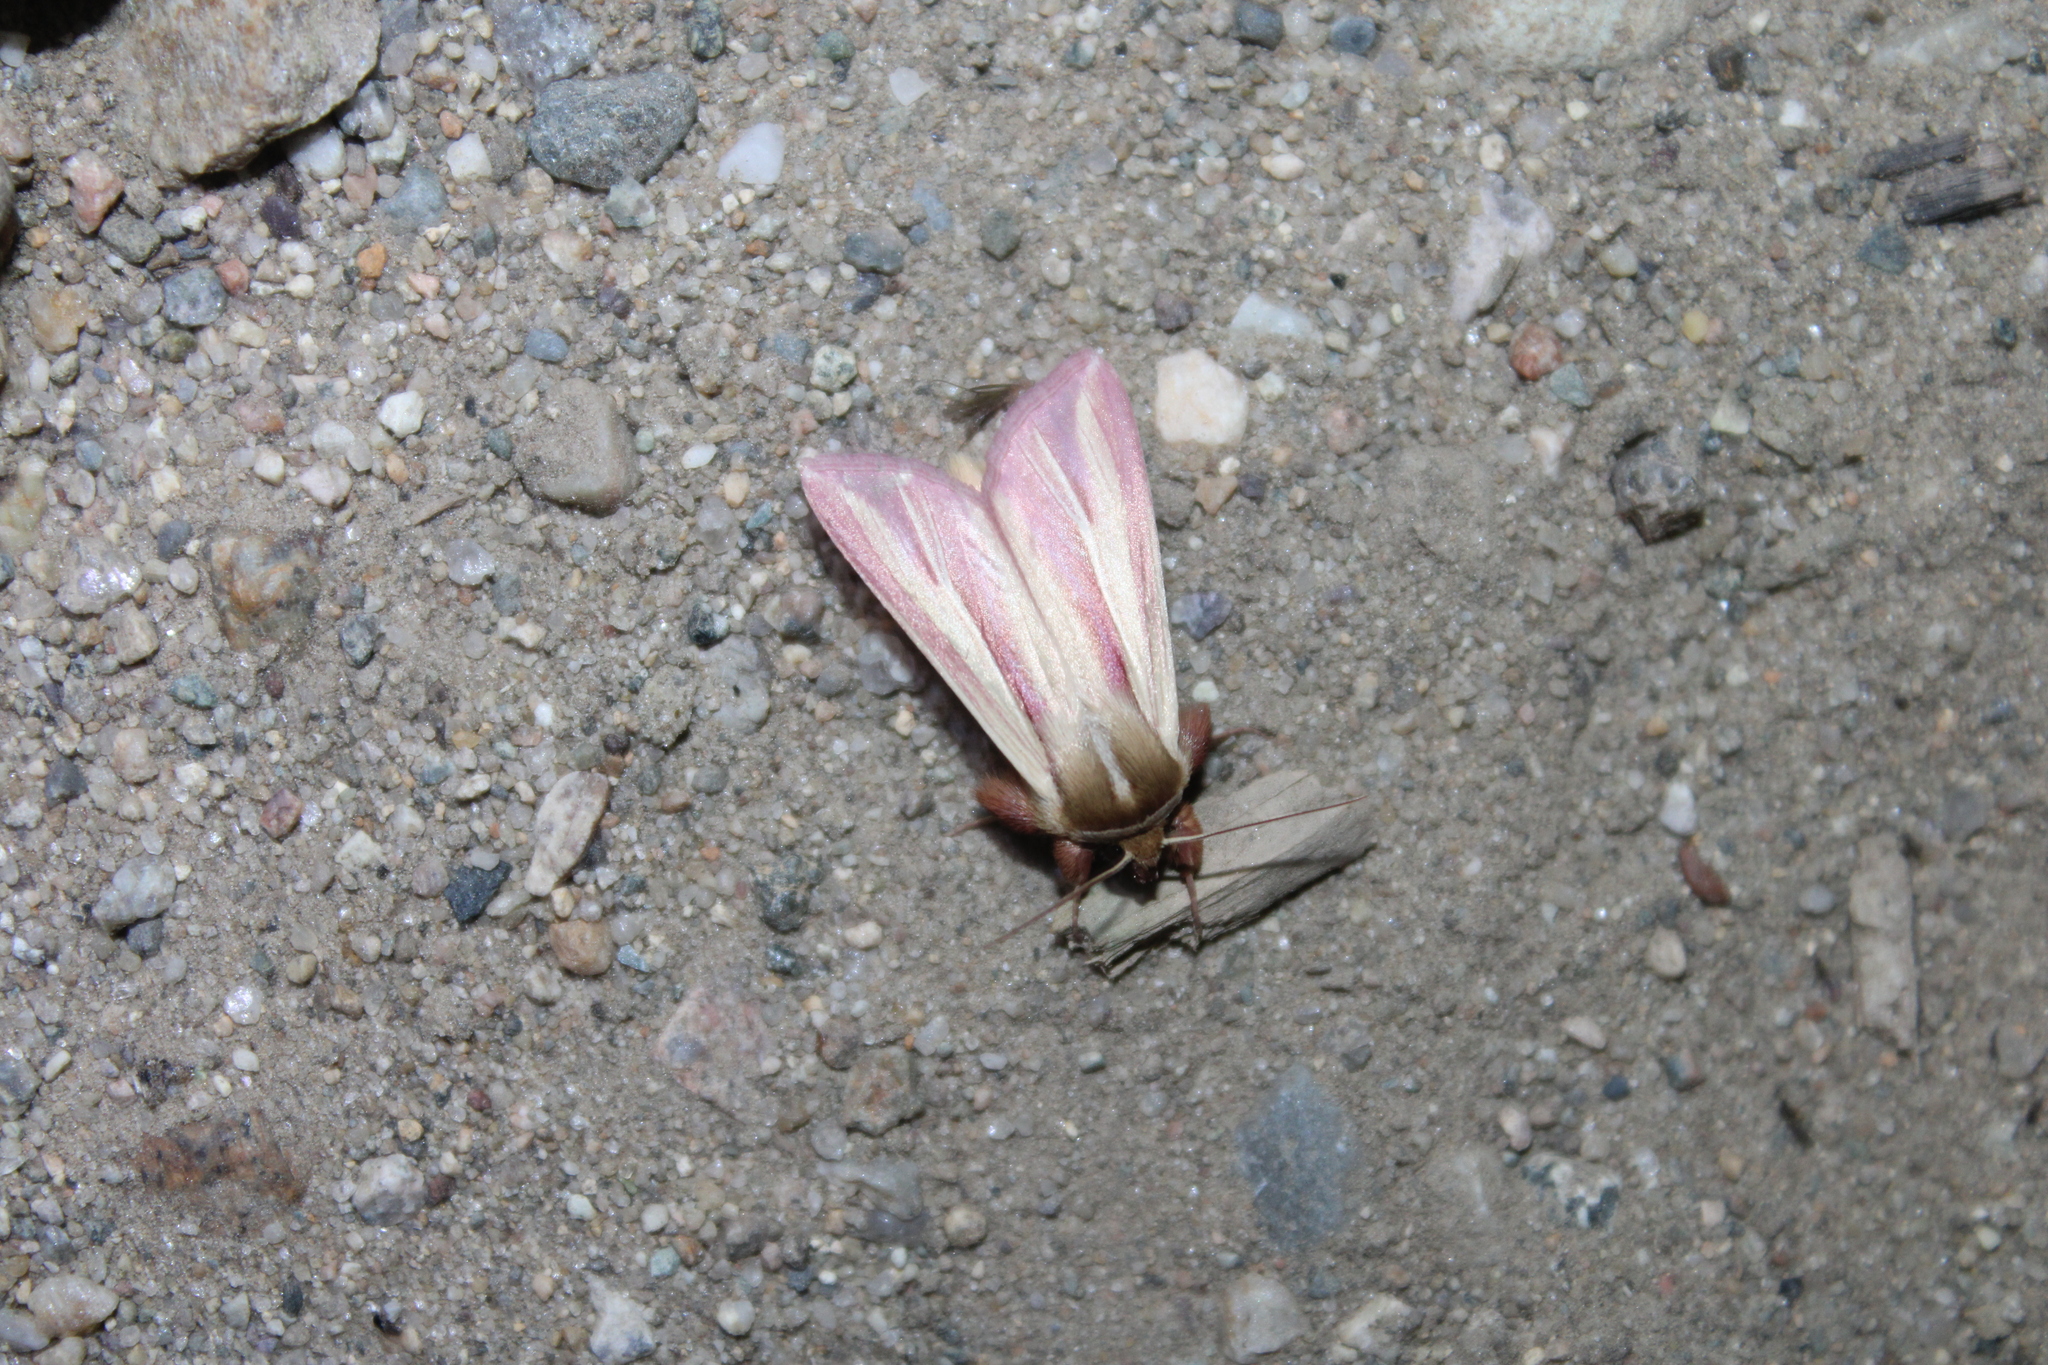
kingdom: Animalia
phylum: Arthropoda
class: Insecta
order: Lepidoptera
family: Noctuidae
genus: Dargida
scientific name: Dargida rubripennis
